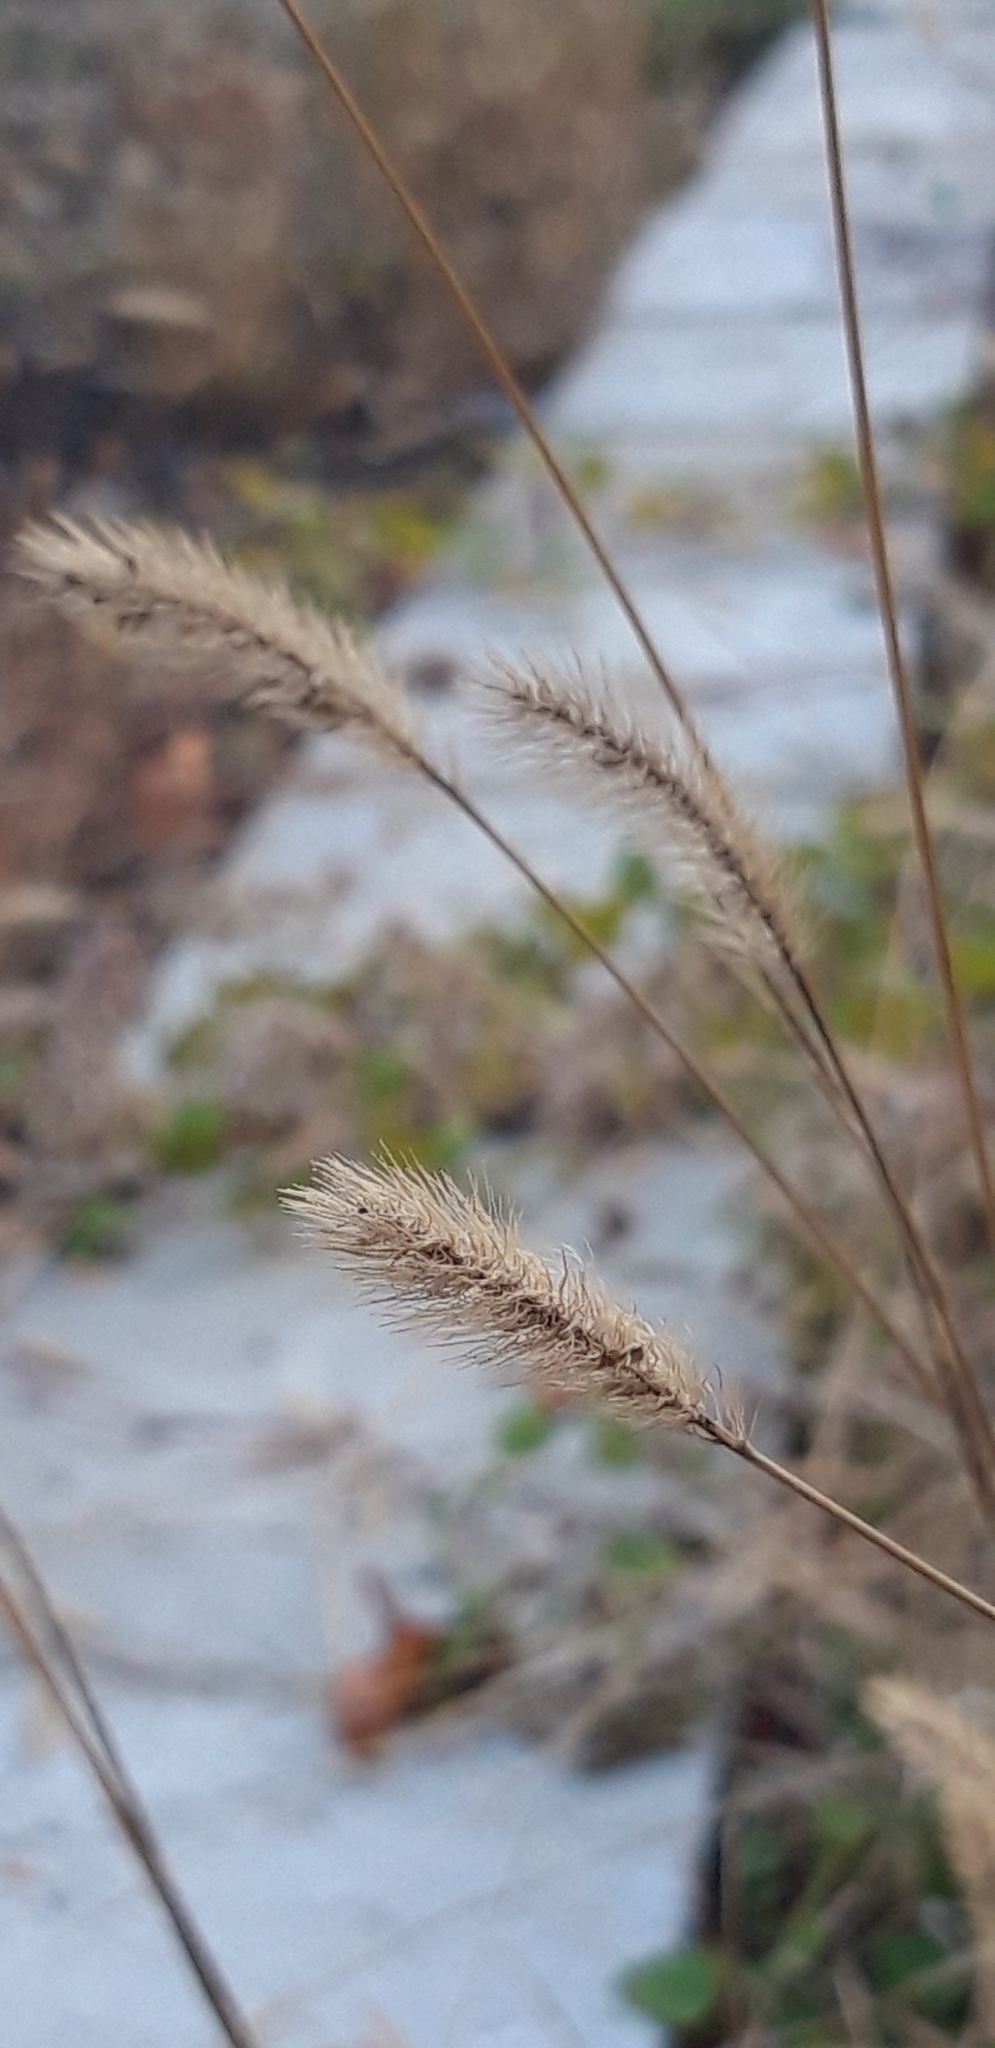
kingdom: Plantae
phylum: Tracheophyta
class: Liliopsida
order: Poales
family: Poaceae
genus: Setaria
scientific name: Setaria pumila
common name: Yellow bristle-grass
